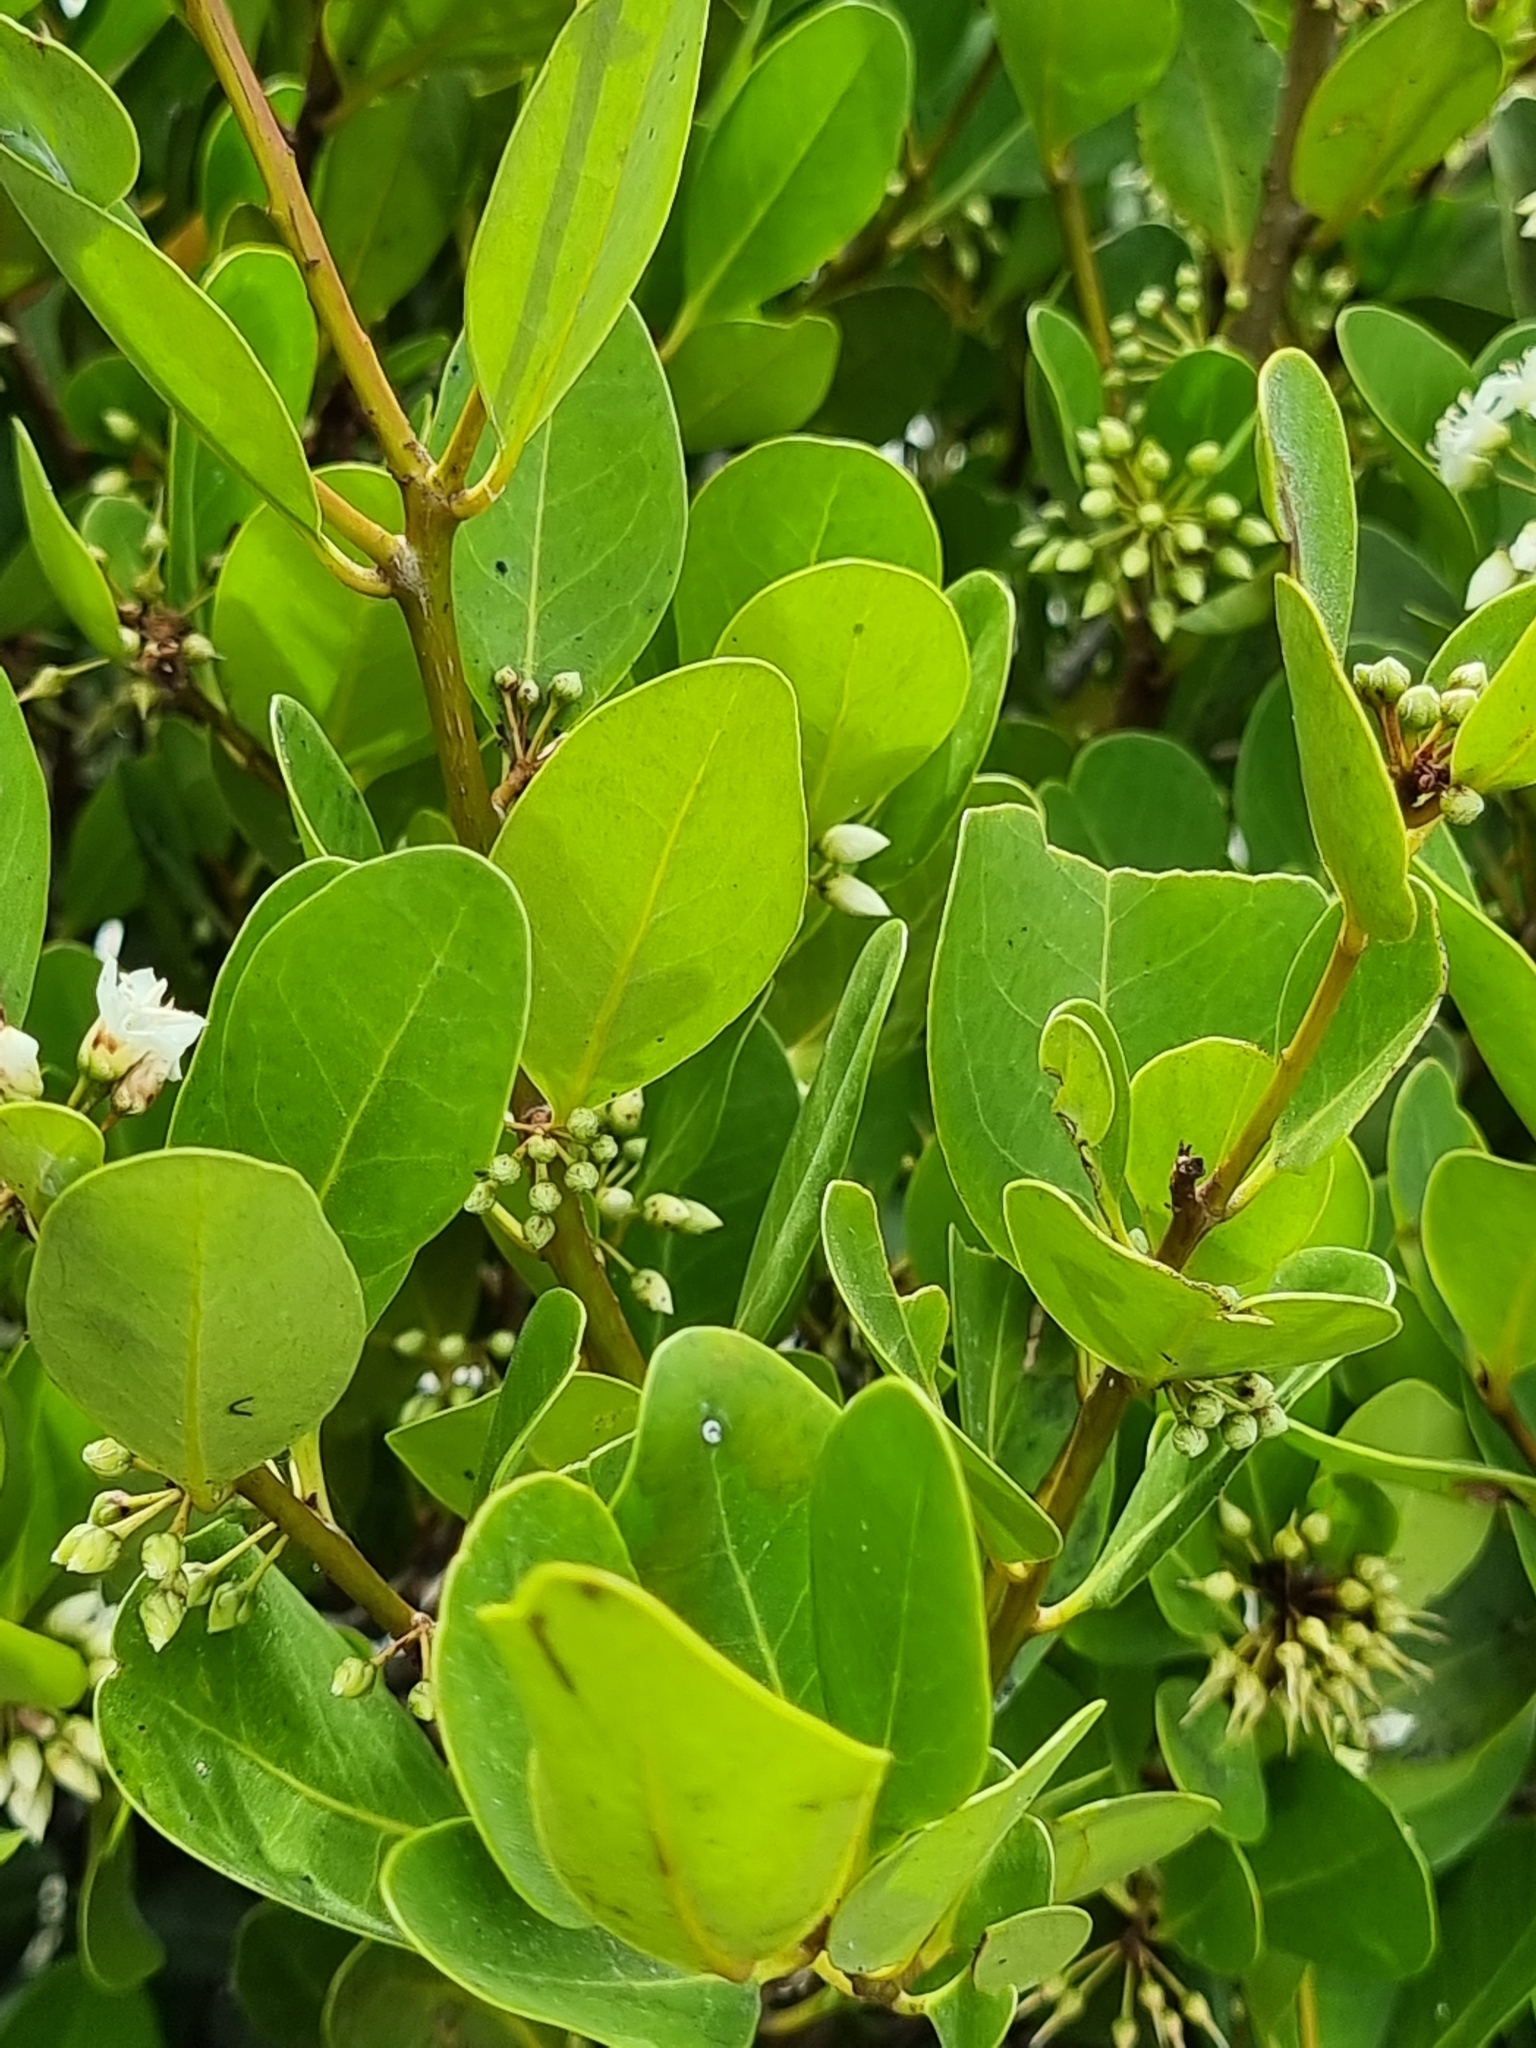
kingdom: Plantae
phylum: Tracheophyta
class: Magnoliopsida
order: Ericales
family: Primulaceae
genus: Aegiceras
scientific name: Aegiceras corniculatum
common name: River mangrove
